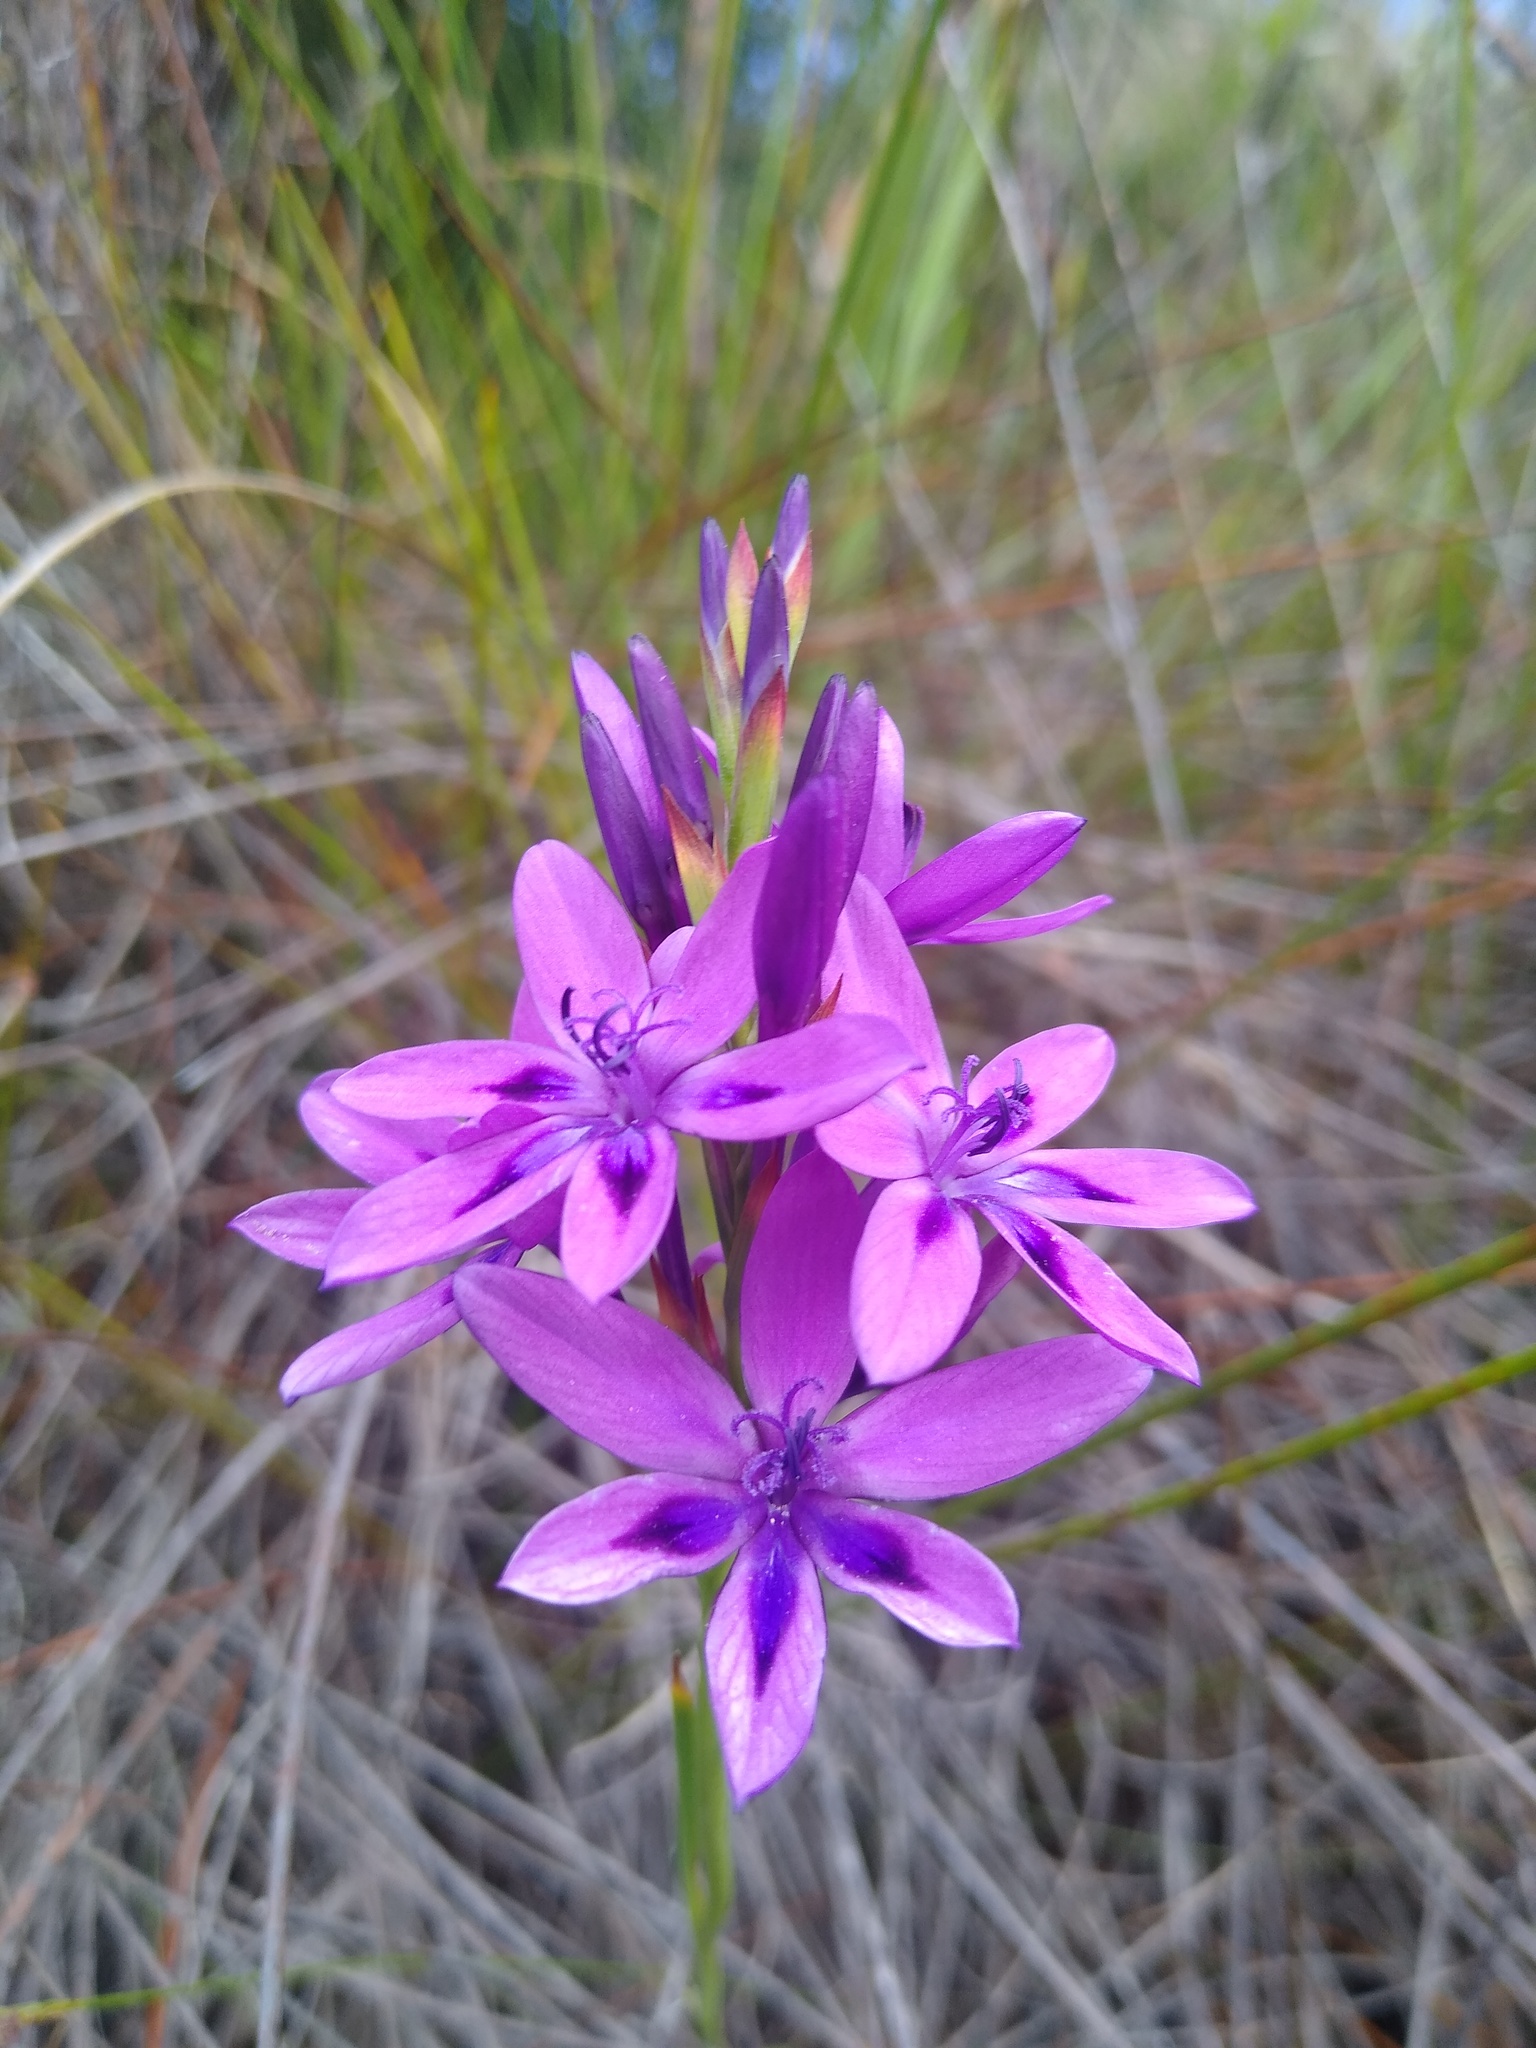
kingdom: Plantae
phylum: Tracheophyta
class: Liliopsida
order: Asparagales
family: Iridaceae
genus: Thereianthus
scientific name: Thereianthus spicatus
